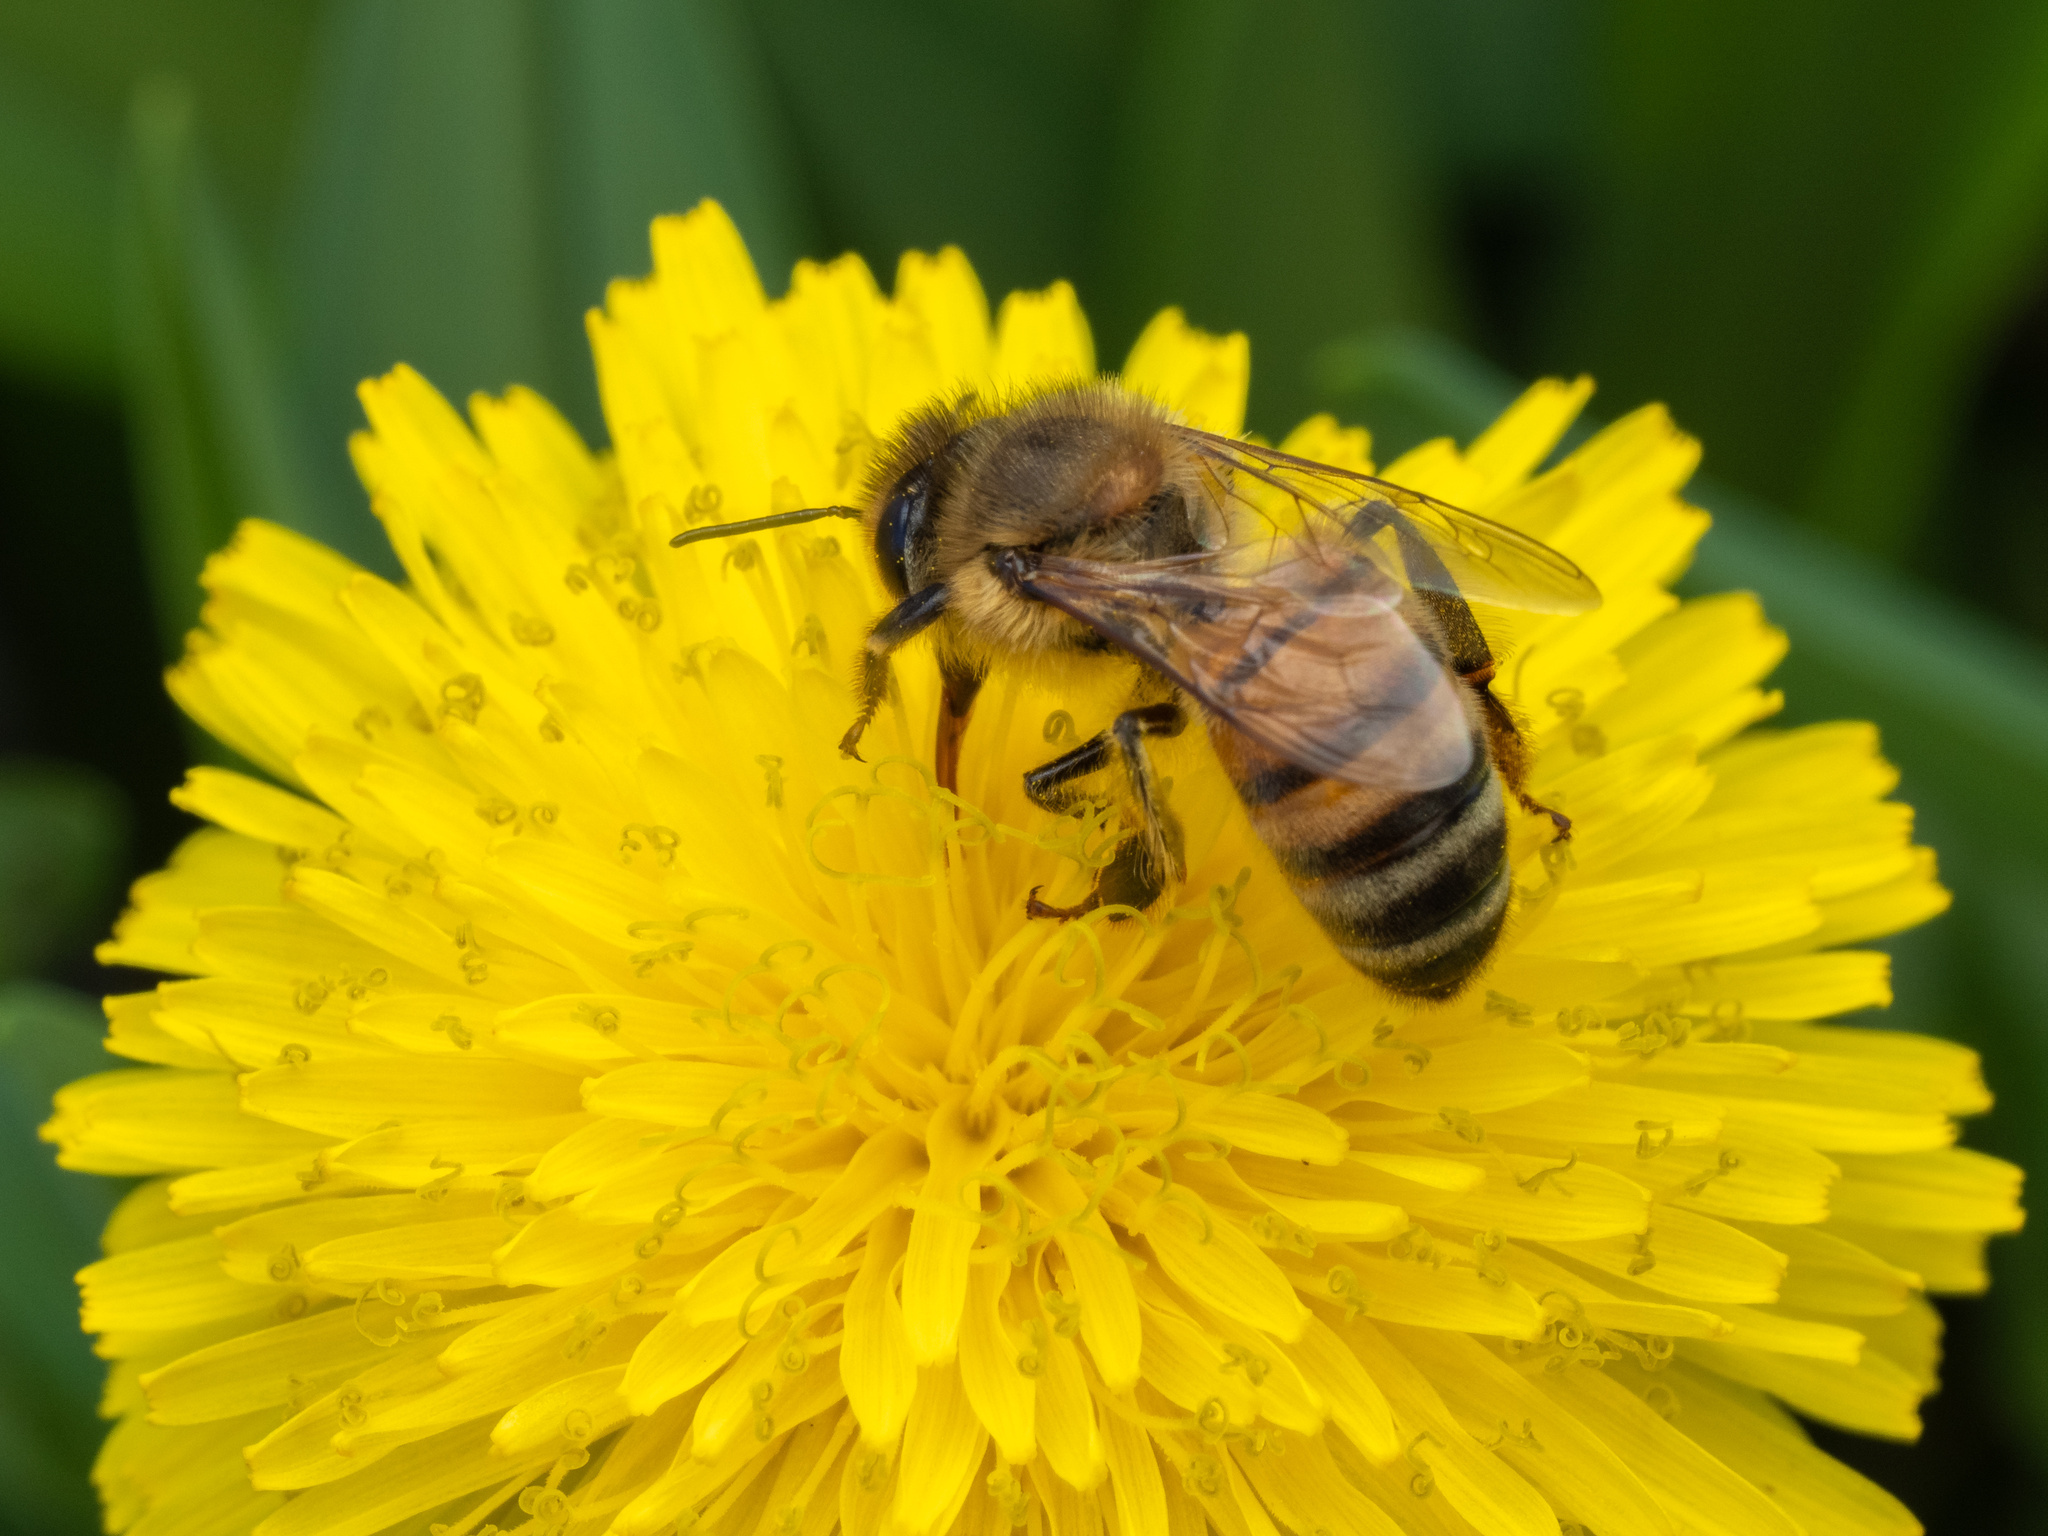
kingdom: Animalia
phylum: Arthropoda
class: Insecta
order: Hymenoptera
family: Apidae
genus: Apis
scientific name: Apis mellifera
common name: Honey bee
